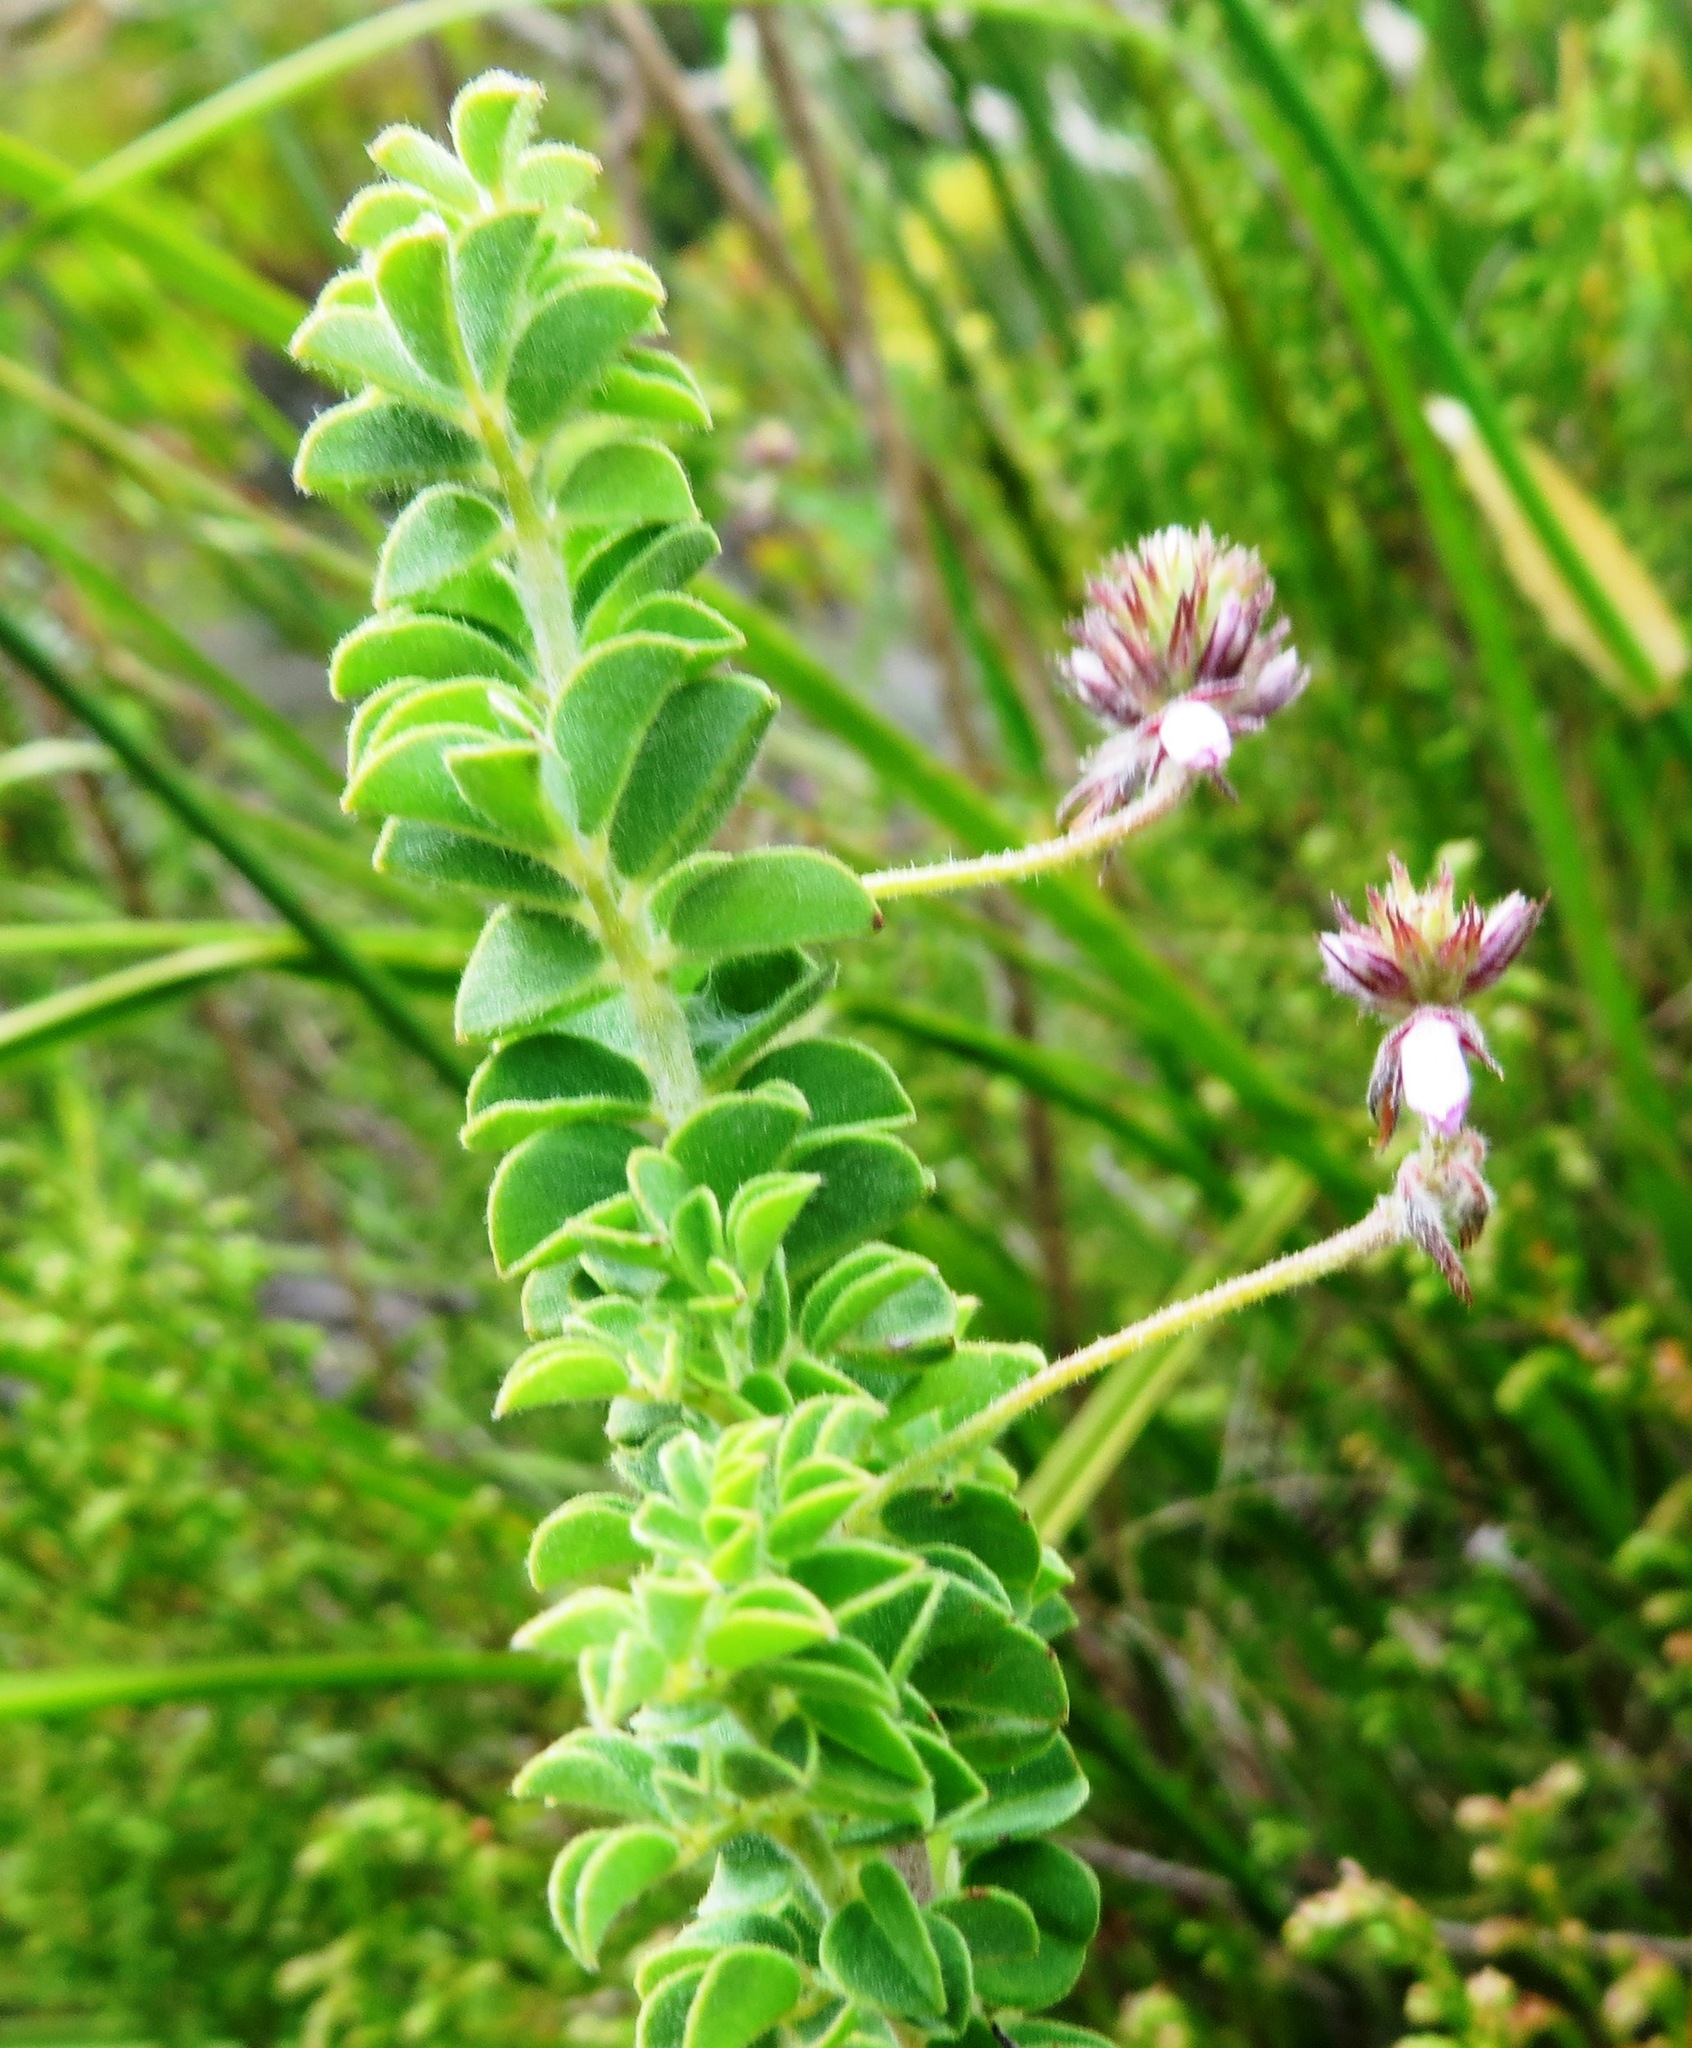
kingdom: Plantae
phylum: Tracheophyta
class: Magnoliopsida
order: Fabales
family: Fabaceae
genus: Indigofera
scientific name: Indigofera alopecuroides
